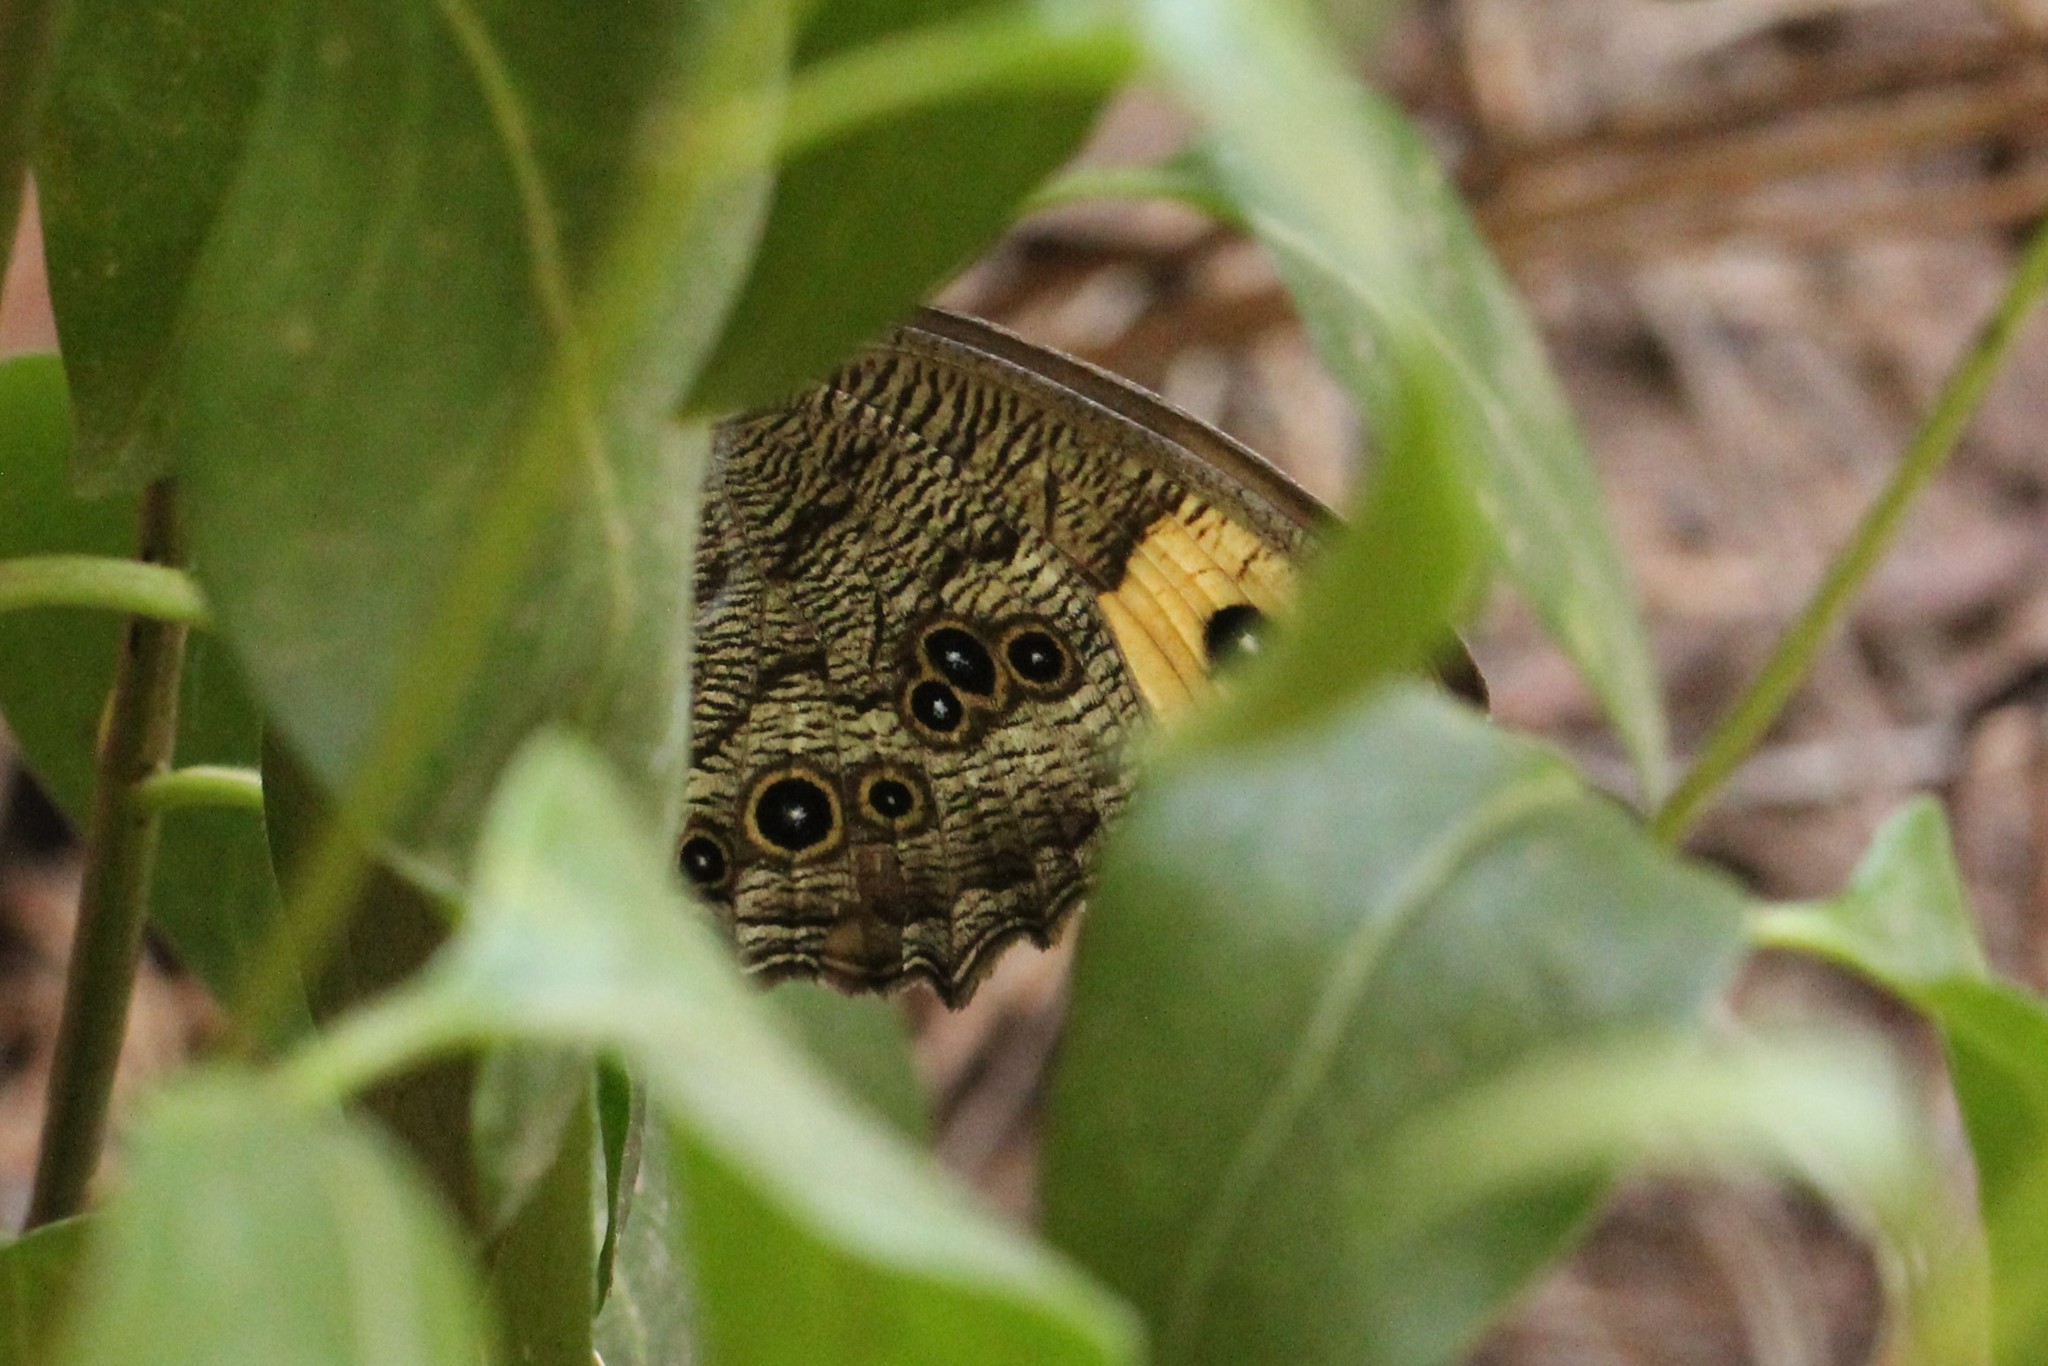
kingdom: Animalia
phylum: Arthropoda
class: Insecta
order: Lepidoptera
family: Nymphalidae
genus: Cercyonis
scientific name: Cercyonis pegala
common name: Common wood-nymph
